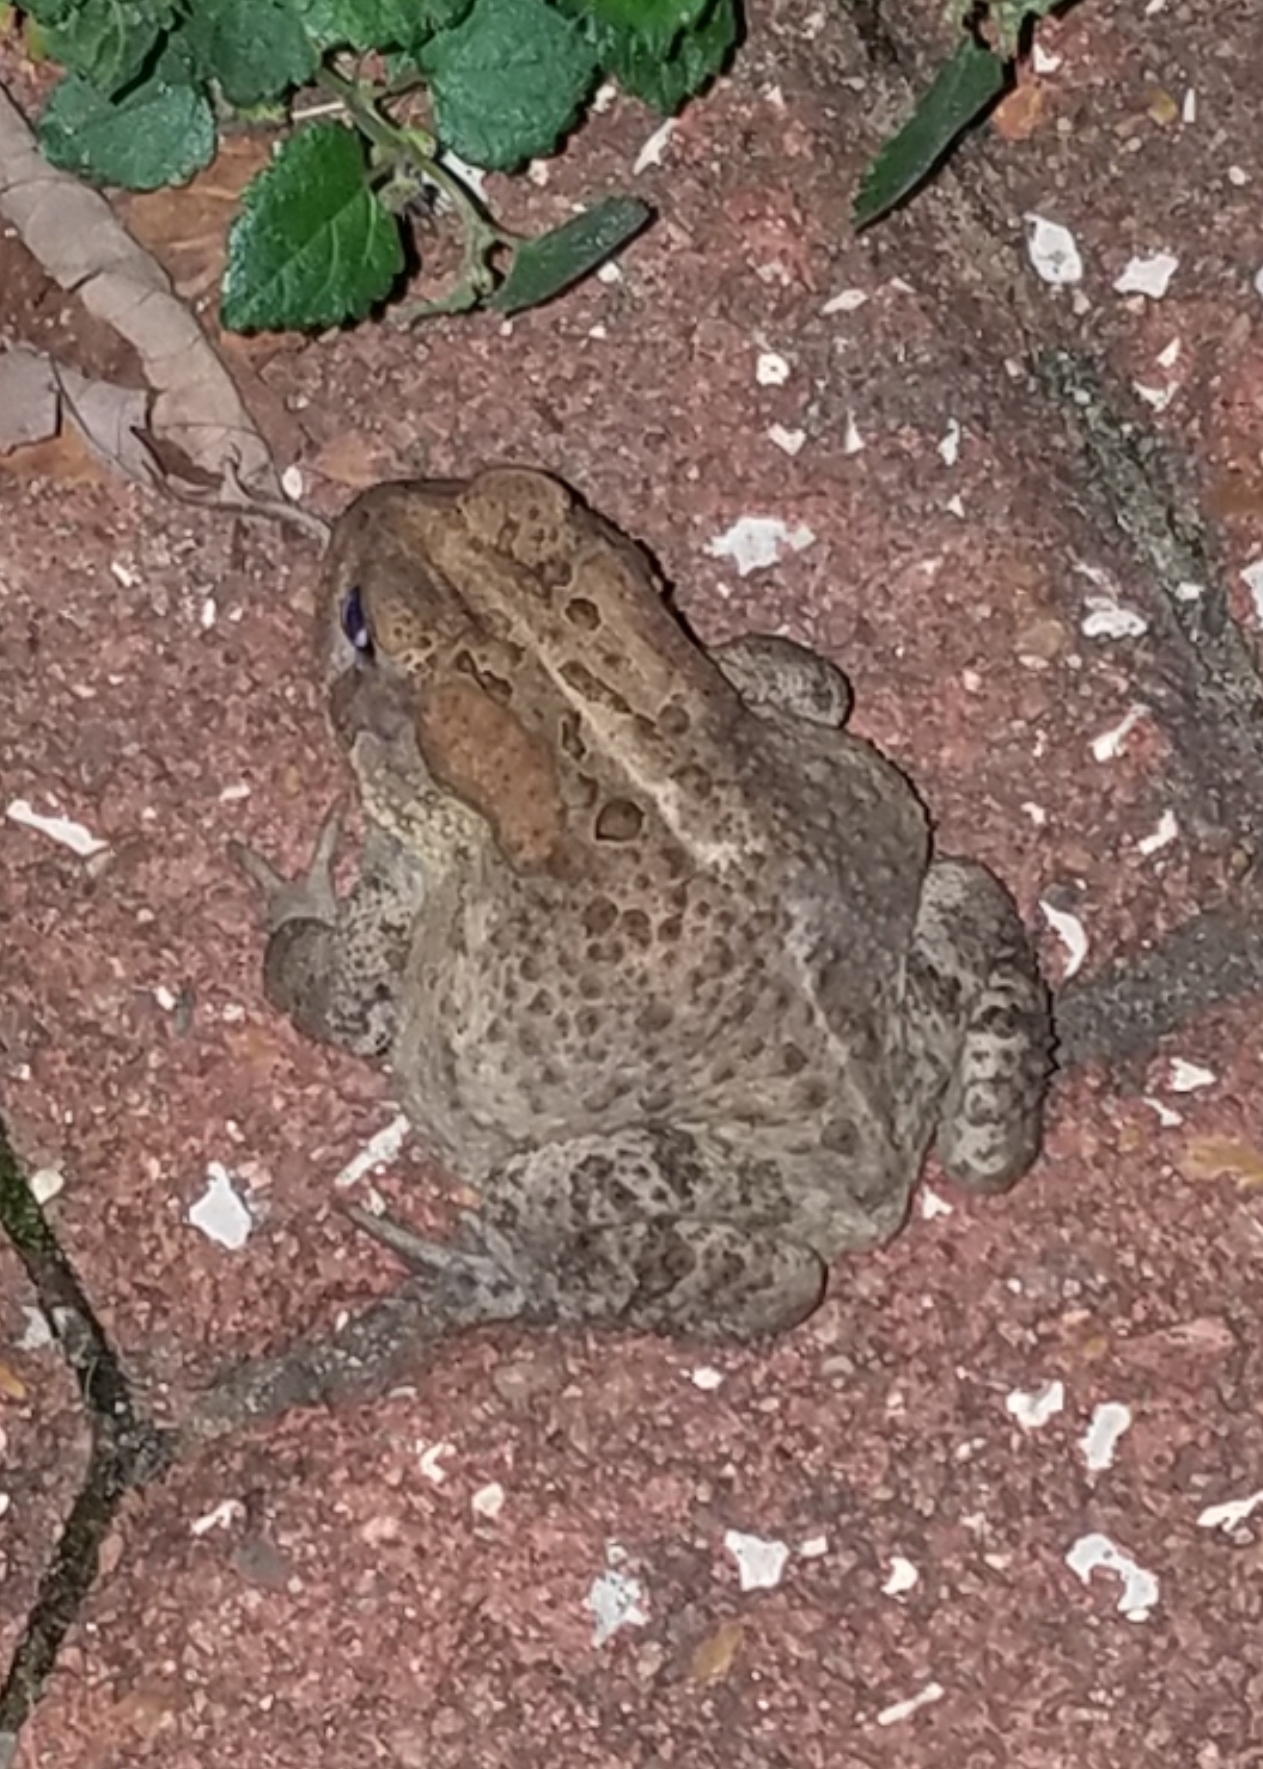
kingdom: Animalia
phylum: Chordata
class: Amphibia
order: Anura
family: Bufonidae
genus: Anaxyrus
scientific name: Anaxyrus americanus
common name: American toad
